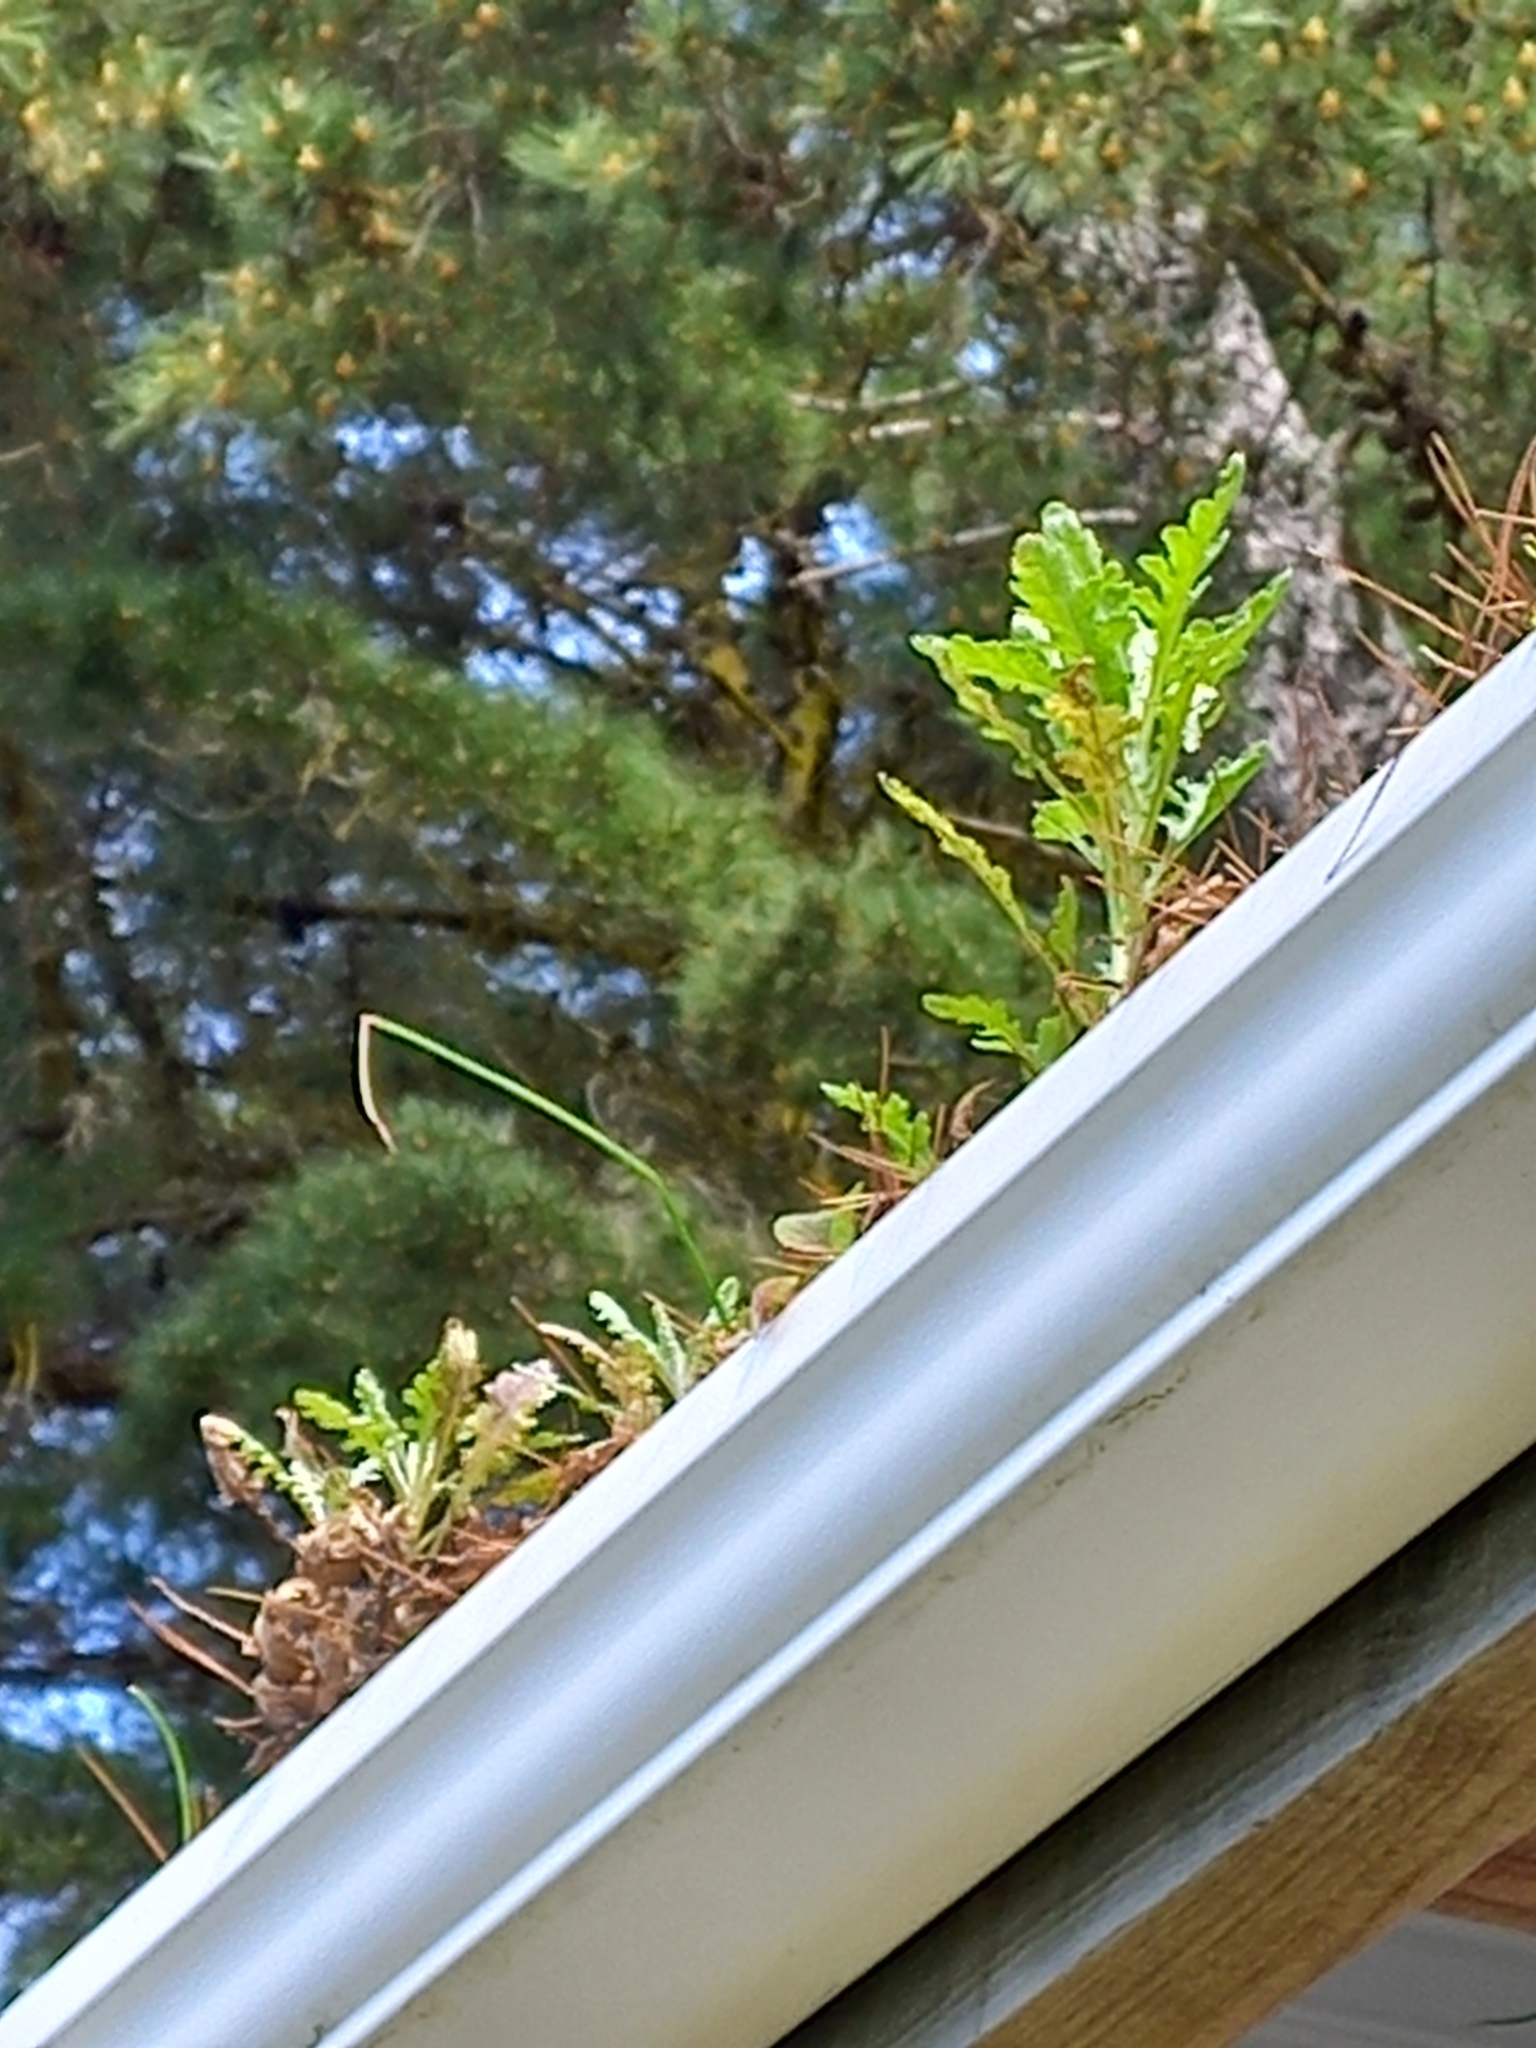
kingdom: Plantae
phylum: Tracheophyta
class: Magnoliopsida
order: Asterales
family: Asteraceae
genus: Senecio
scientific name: Senecio glomeratus
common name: Cutleaf burnweed
